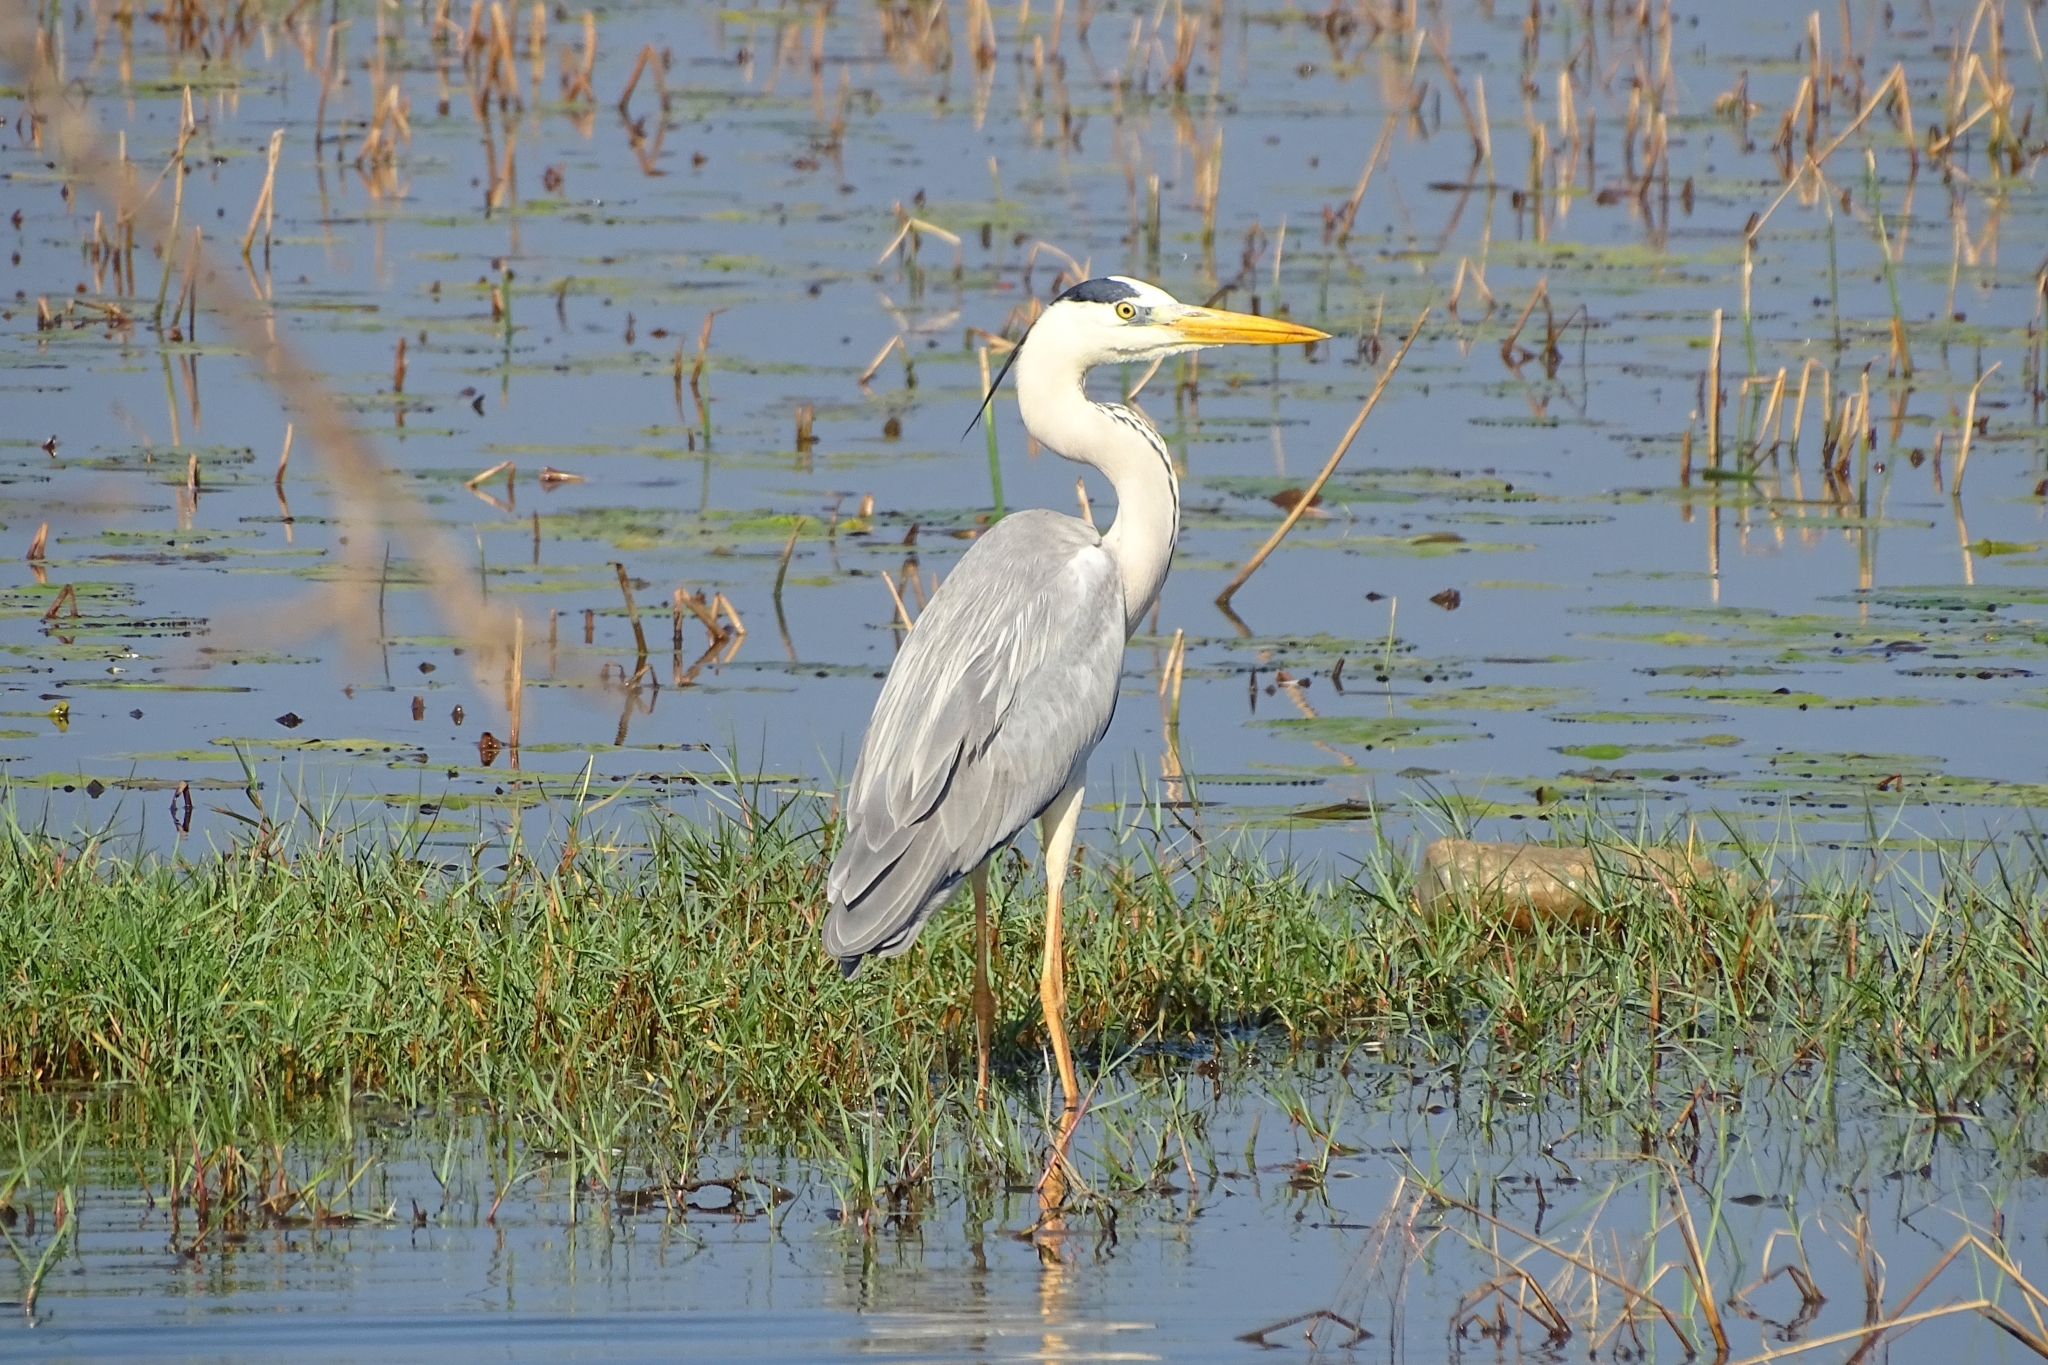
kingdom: Animalia
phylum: Chordata
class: Aves
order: Pelecaniformes
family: Ardeidae
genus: Ardea
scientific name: Ardea cinerea
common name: Grey heron
